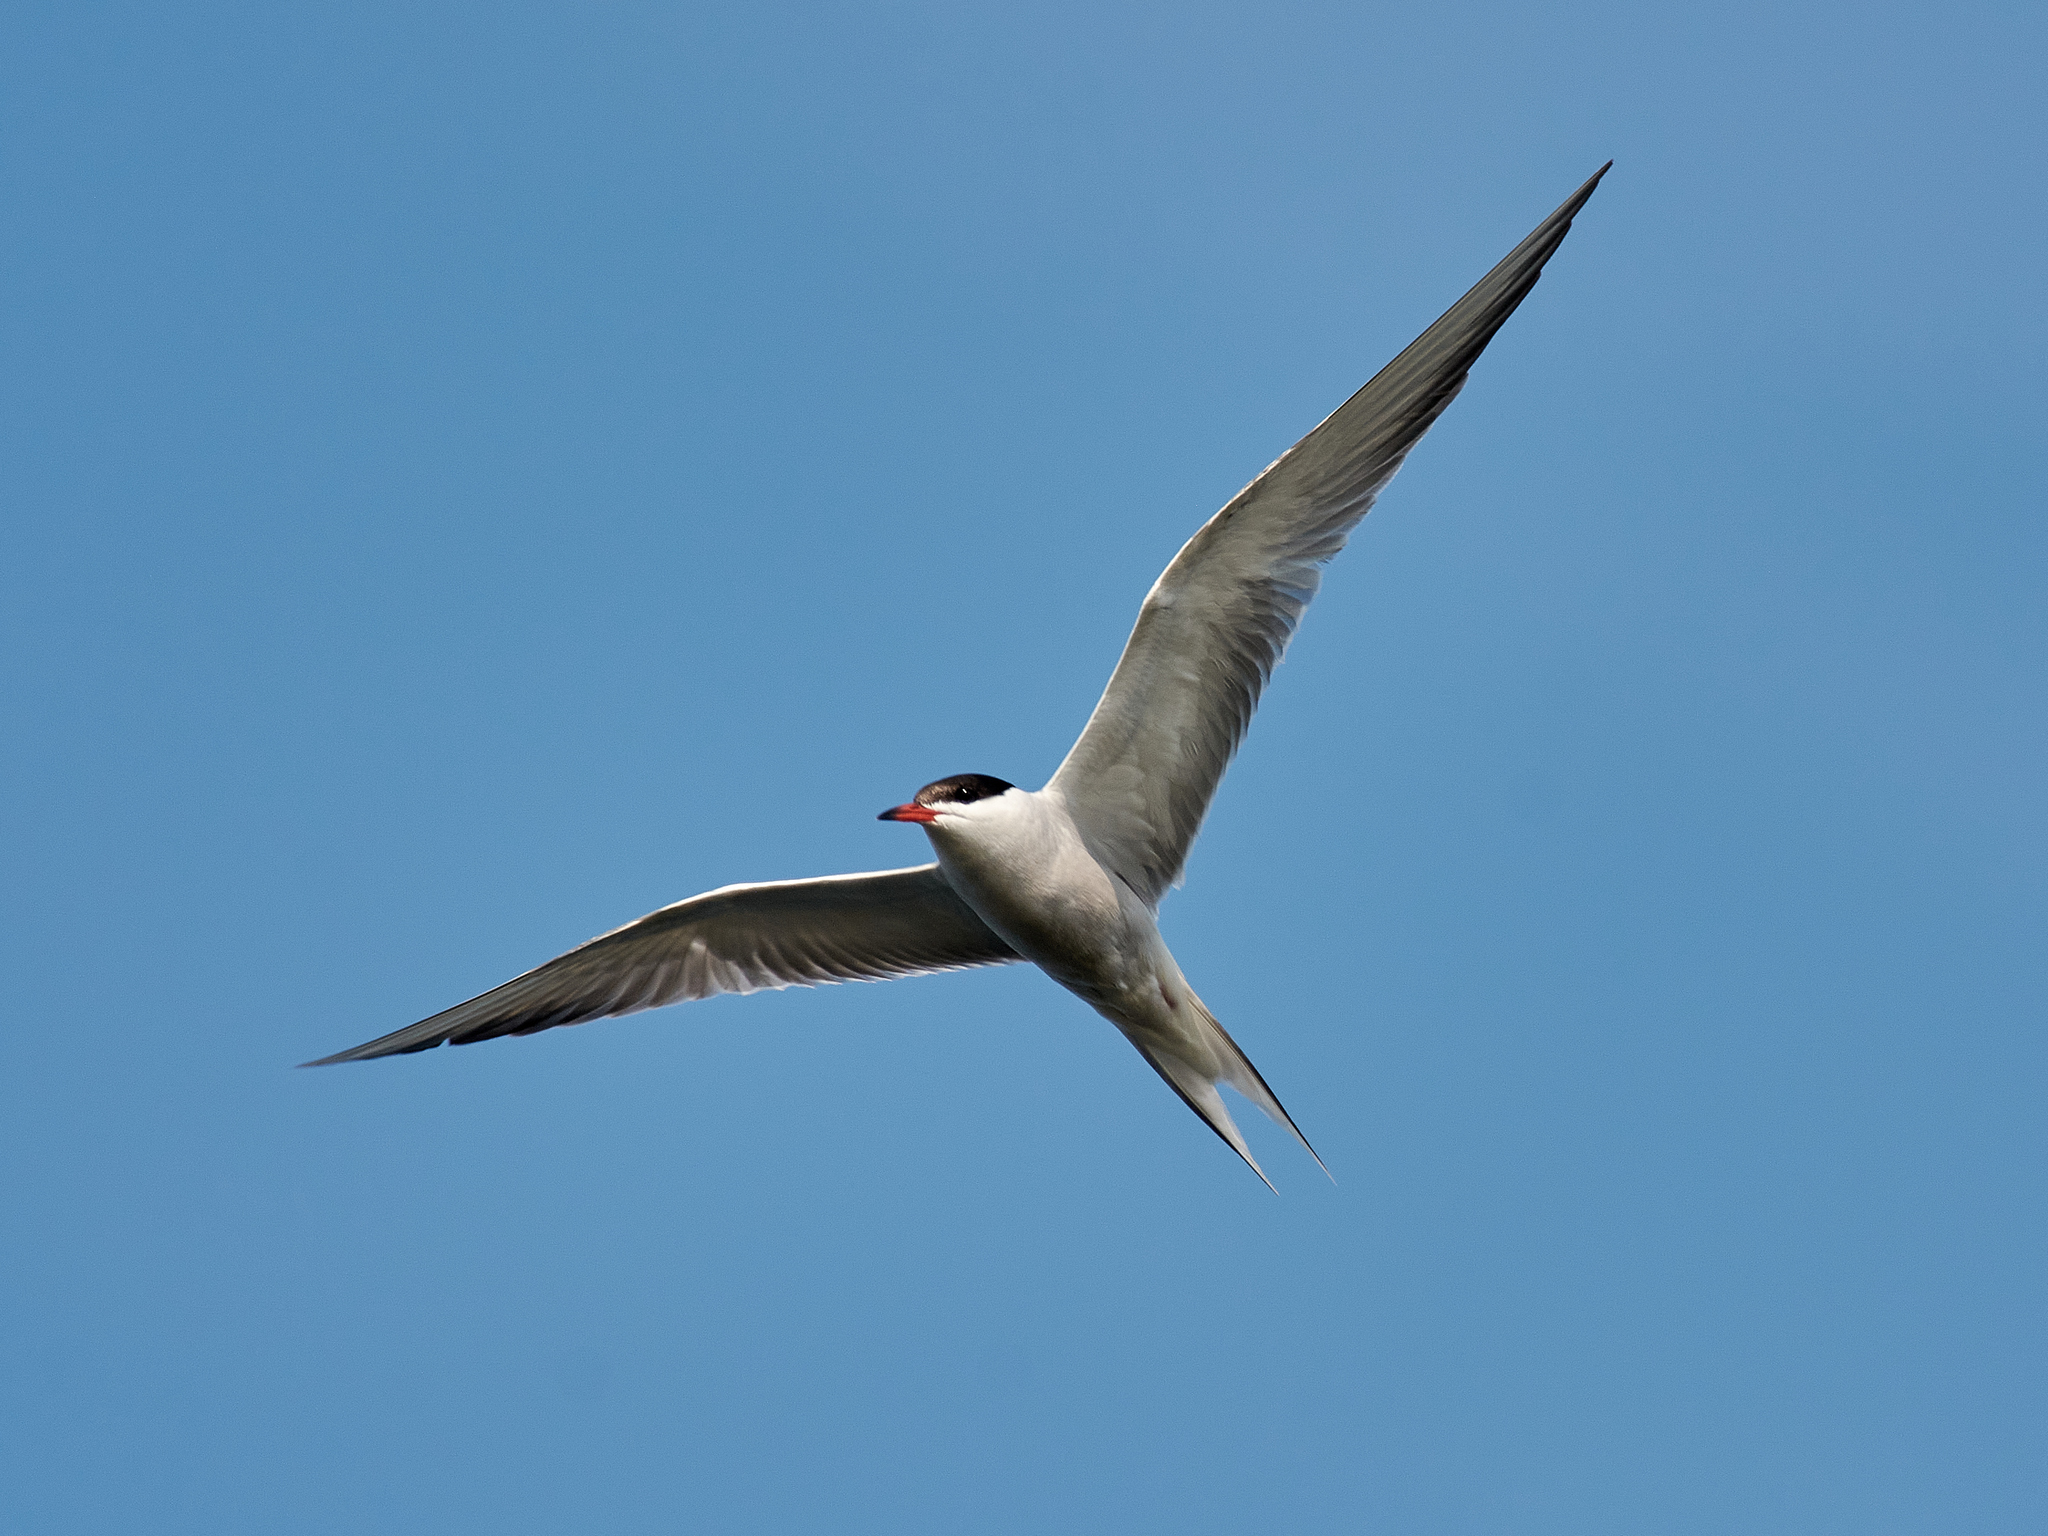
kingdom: Animalia
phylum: Chordata
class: Aves
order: Charadriiformes
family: Laridae
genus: Sterna
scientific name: Sterna hirundo
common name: Common tern
